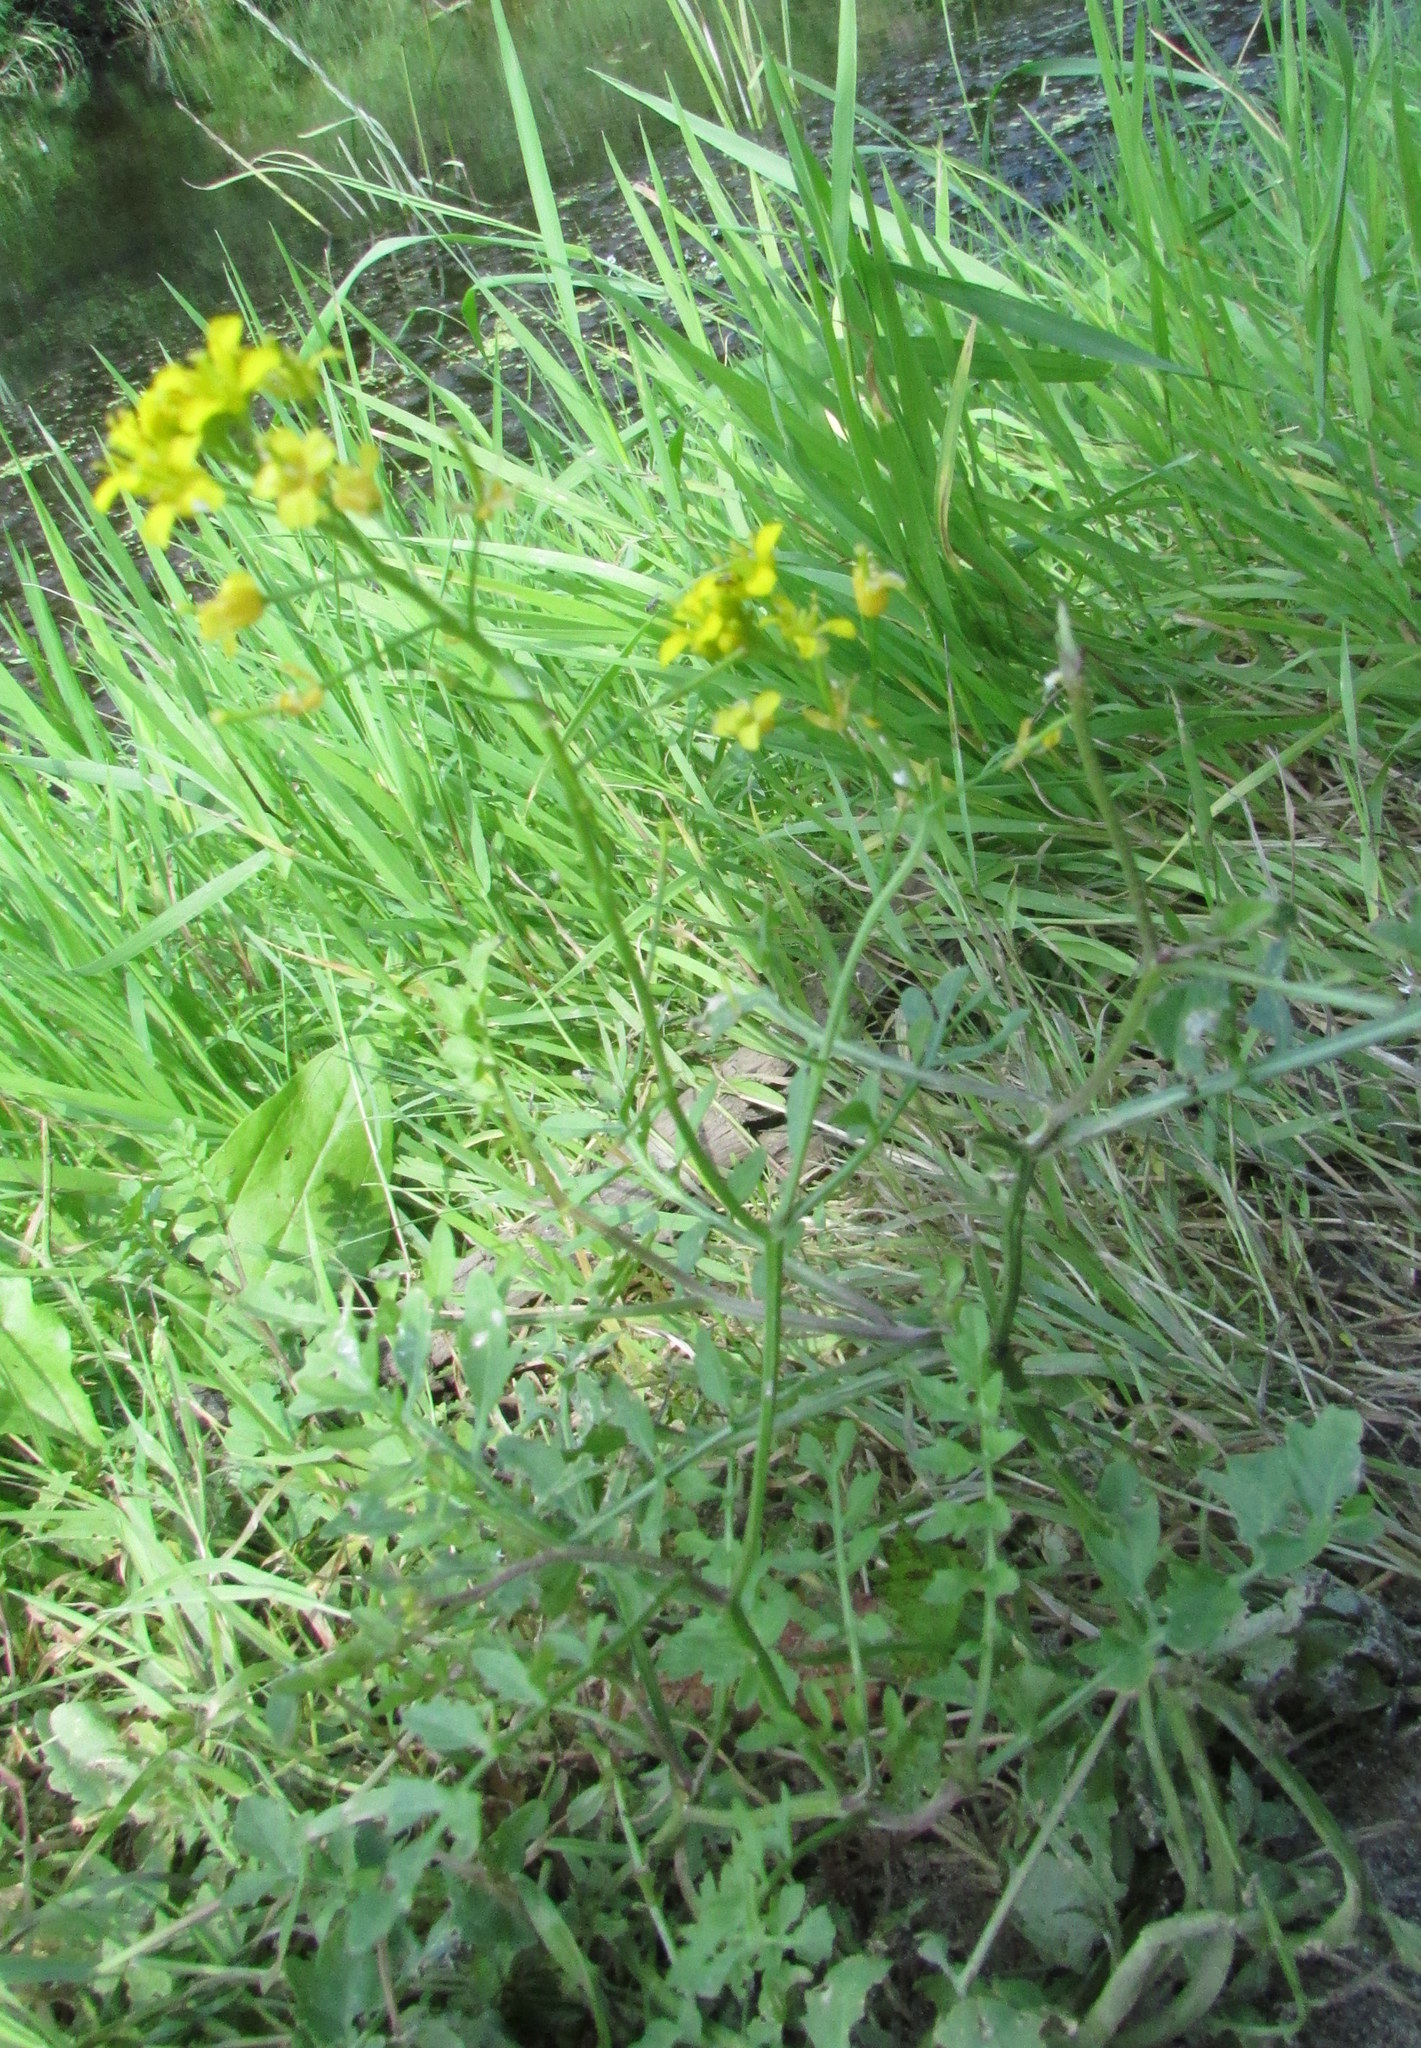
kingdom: Plantae
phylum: Tracheophyta
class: Magnoliopsida
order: Brassicales
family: Brassicaceae
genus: Rorippa
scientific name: Rorippa sylvestris
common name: Creeping yellowcress
